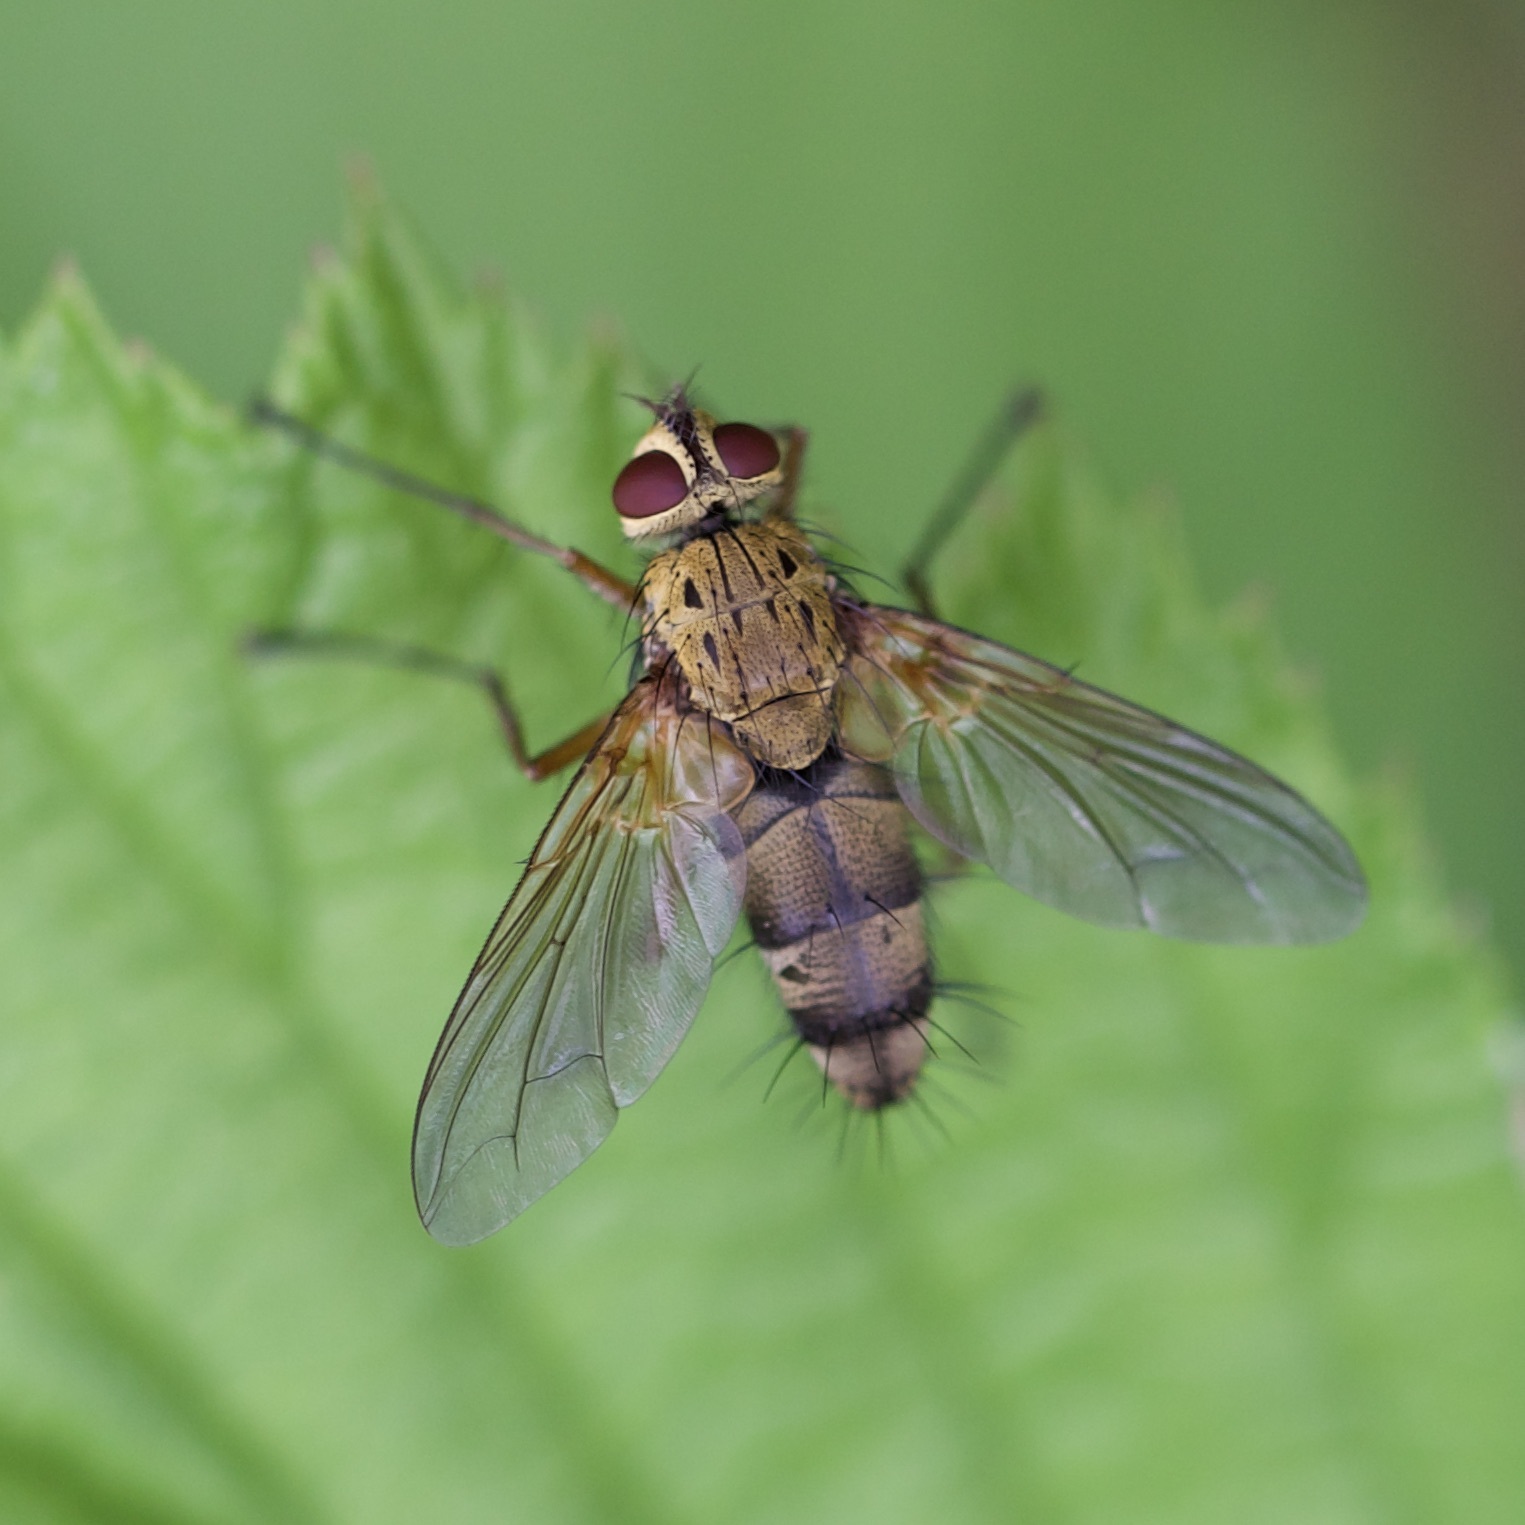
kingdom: Animalia
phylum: Arthropoda
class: Insecta
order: Diptera
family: Tachinidae
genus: Dexiosoma
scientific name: Dexiosoma caninum
